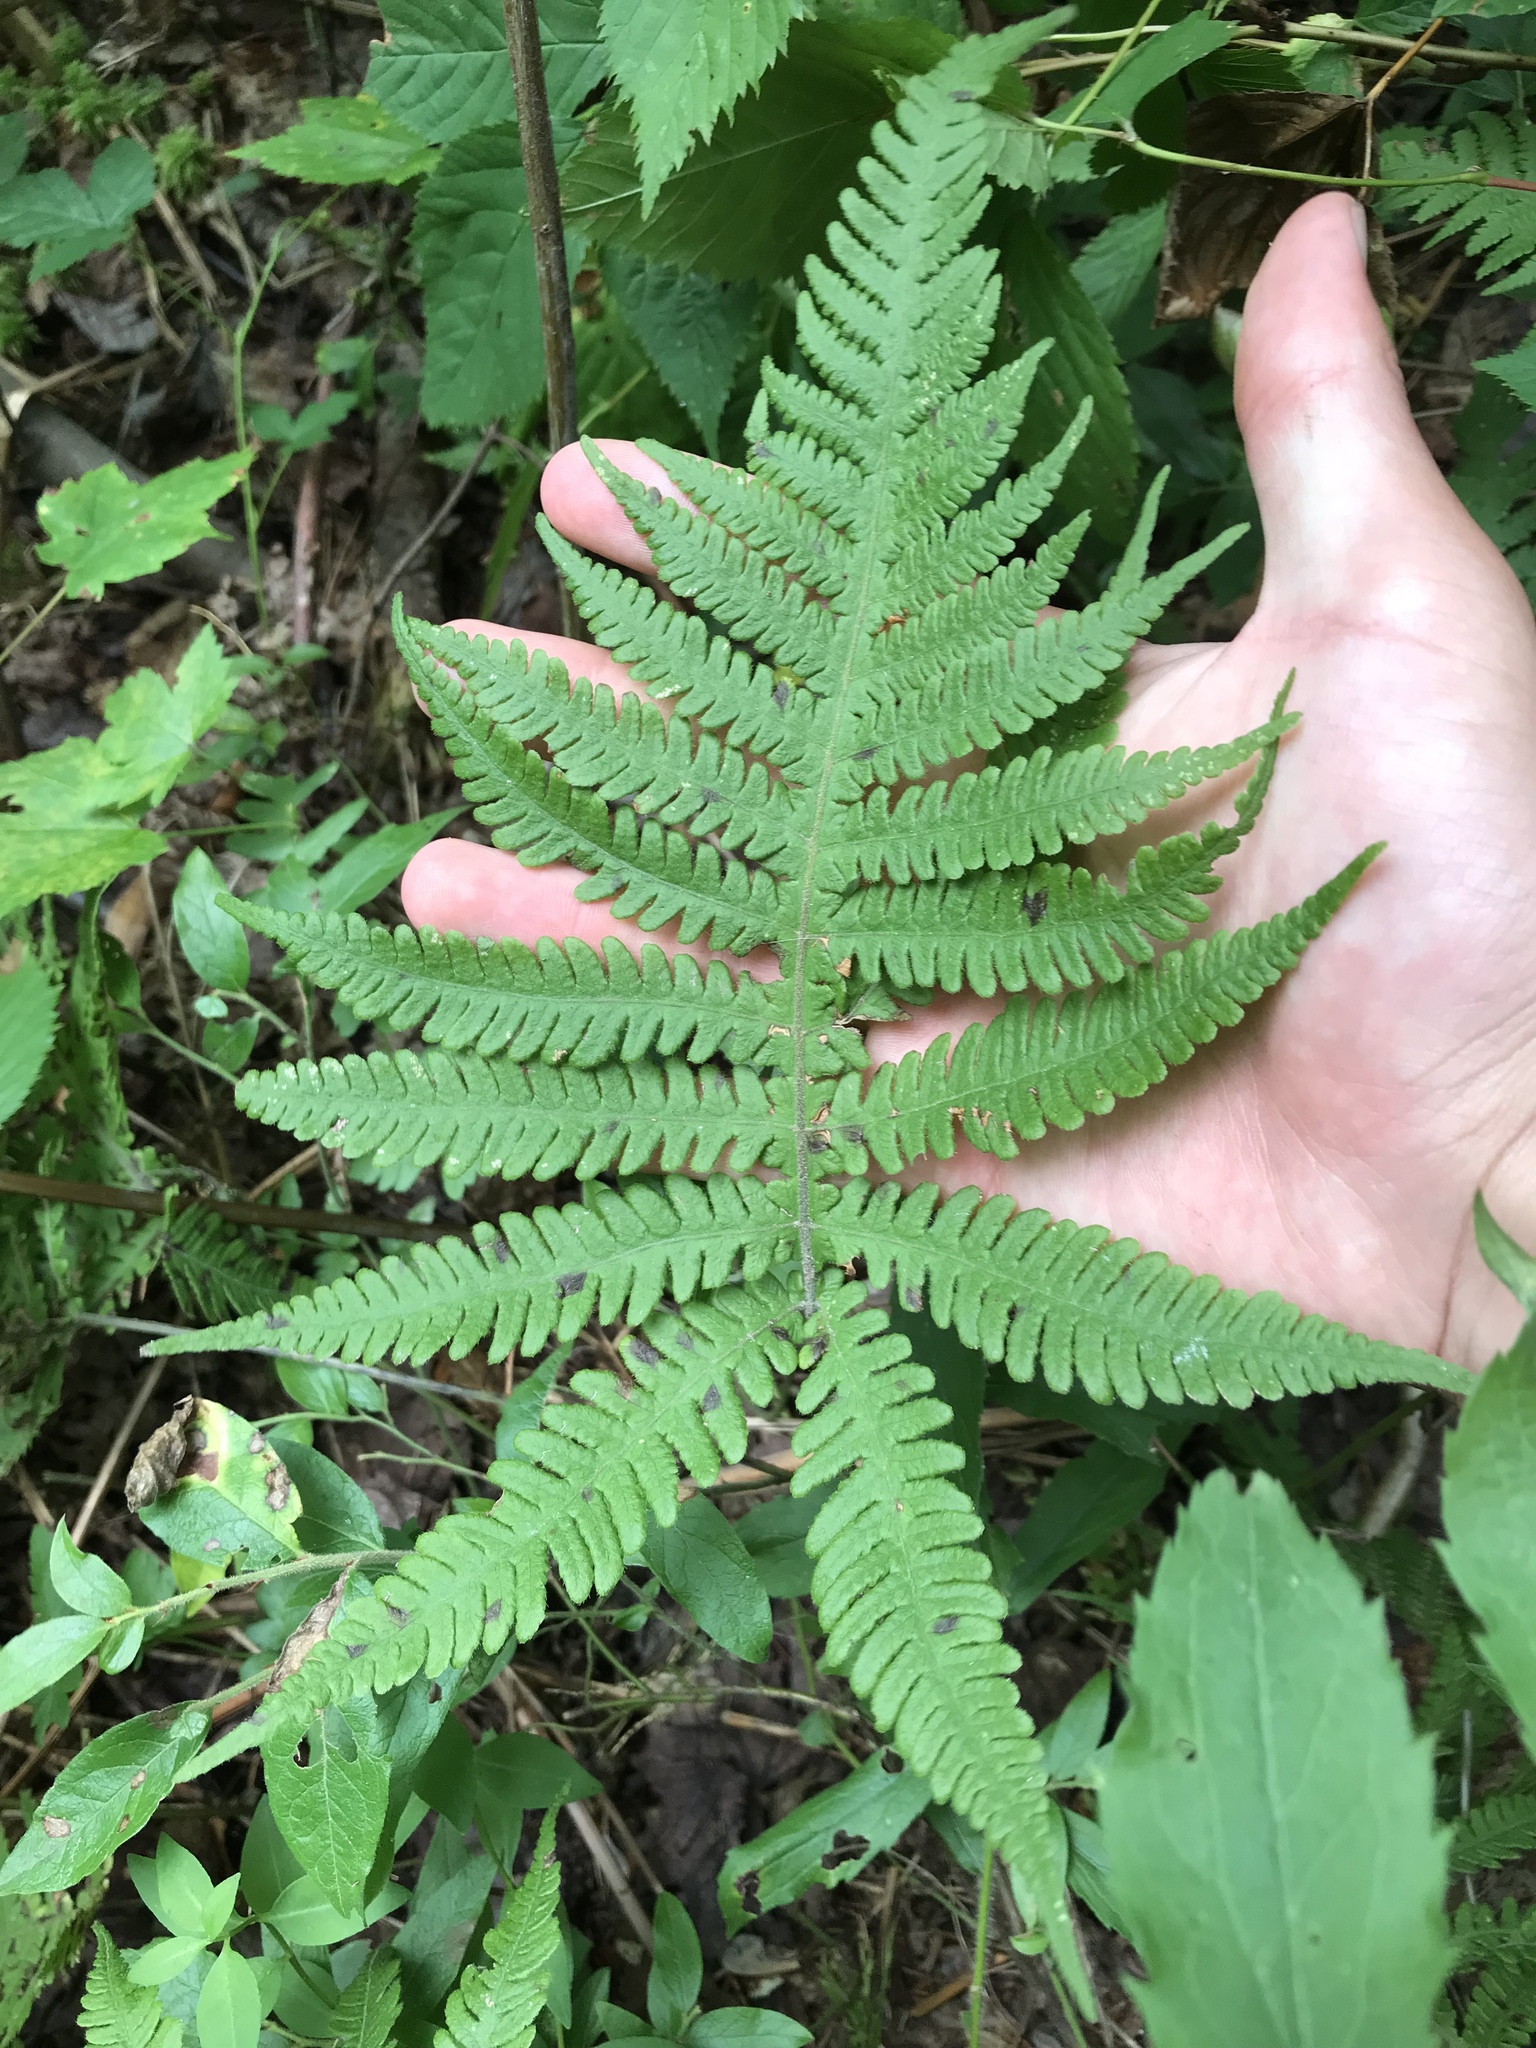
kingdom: Plantae
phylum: Tracheophyta
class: Polypodiopsida
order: Polypodiales
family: Thelypteridaceae
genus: Phegopteris
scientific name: Phegopteris connectilis
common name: Beech fern
